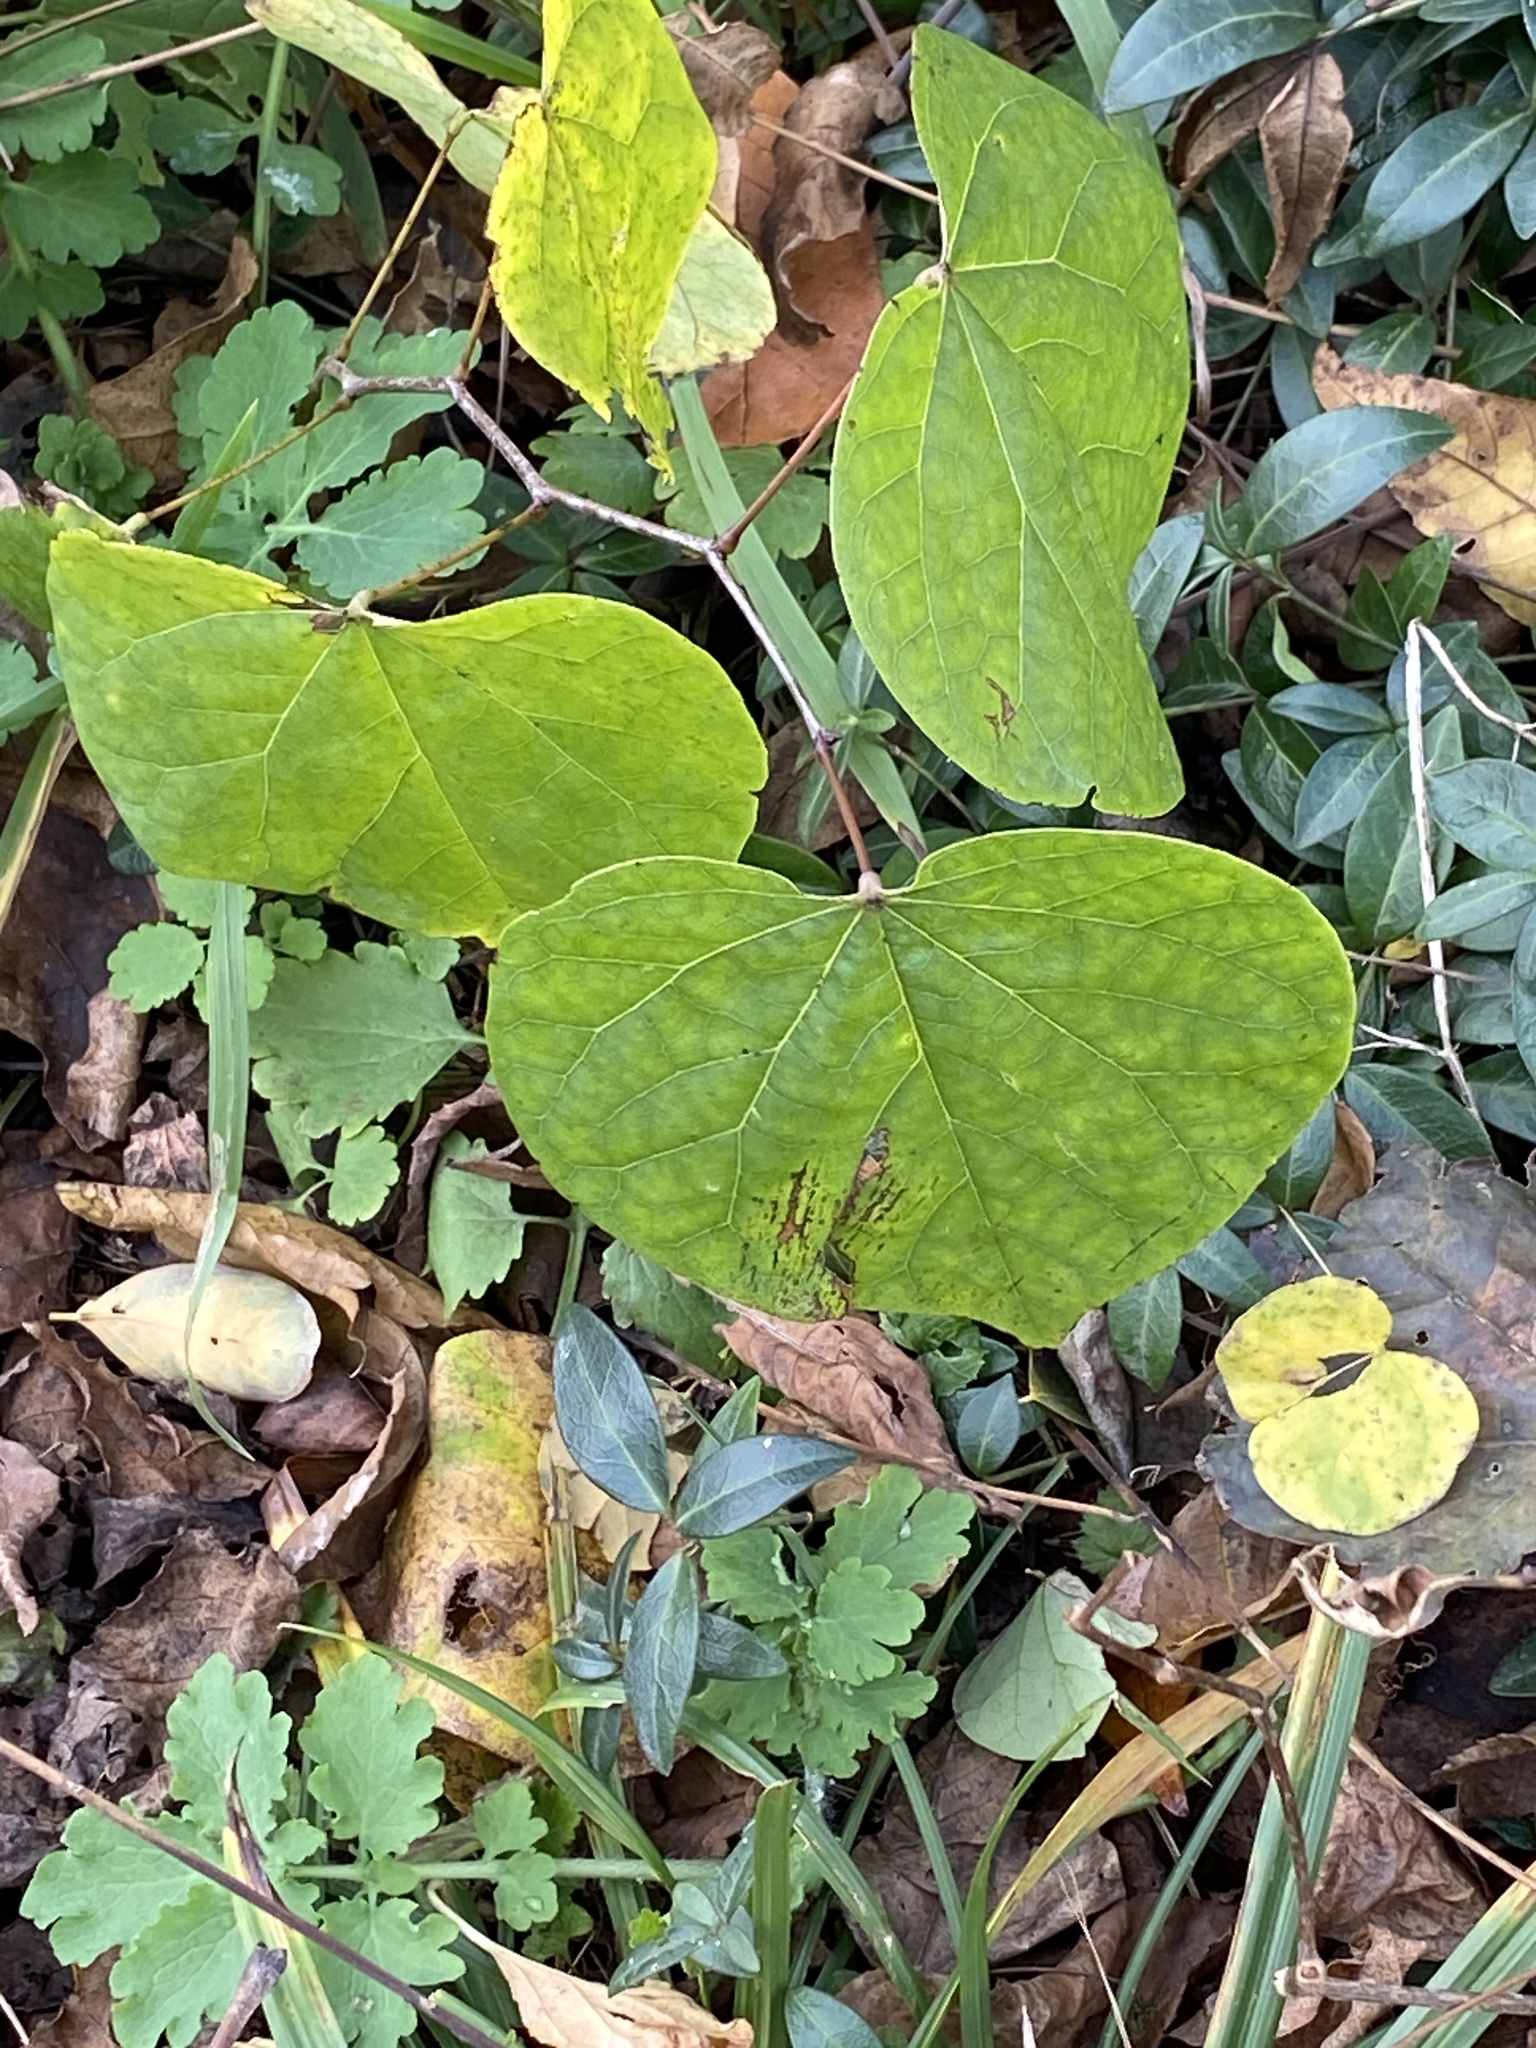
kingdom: Plantae
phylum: Tracheophyta
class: Magnoliopsida
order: Fabales
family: Fabaceae
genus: Cercis
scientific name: Cercis canadensis
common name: Eastern redbud
